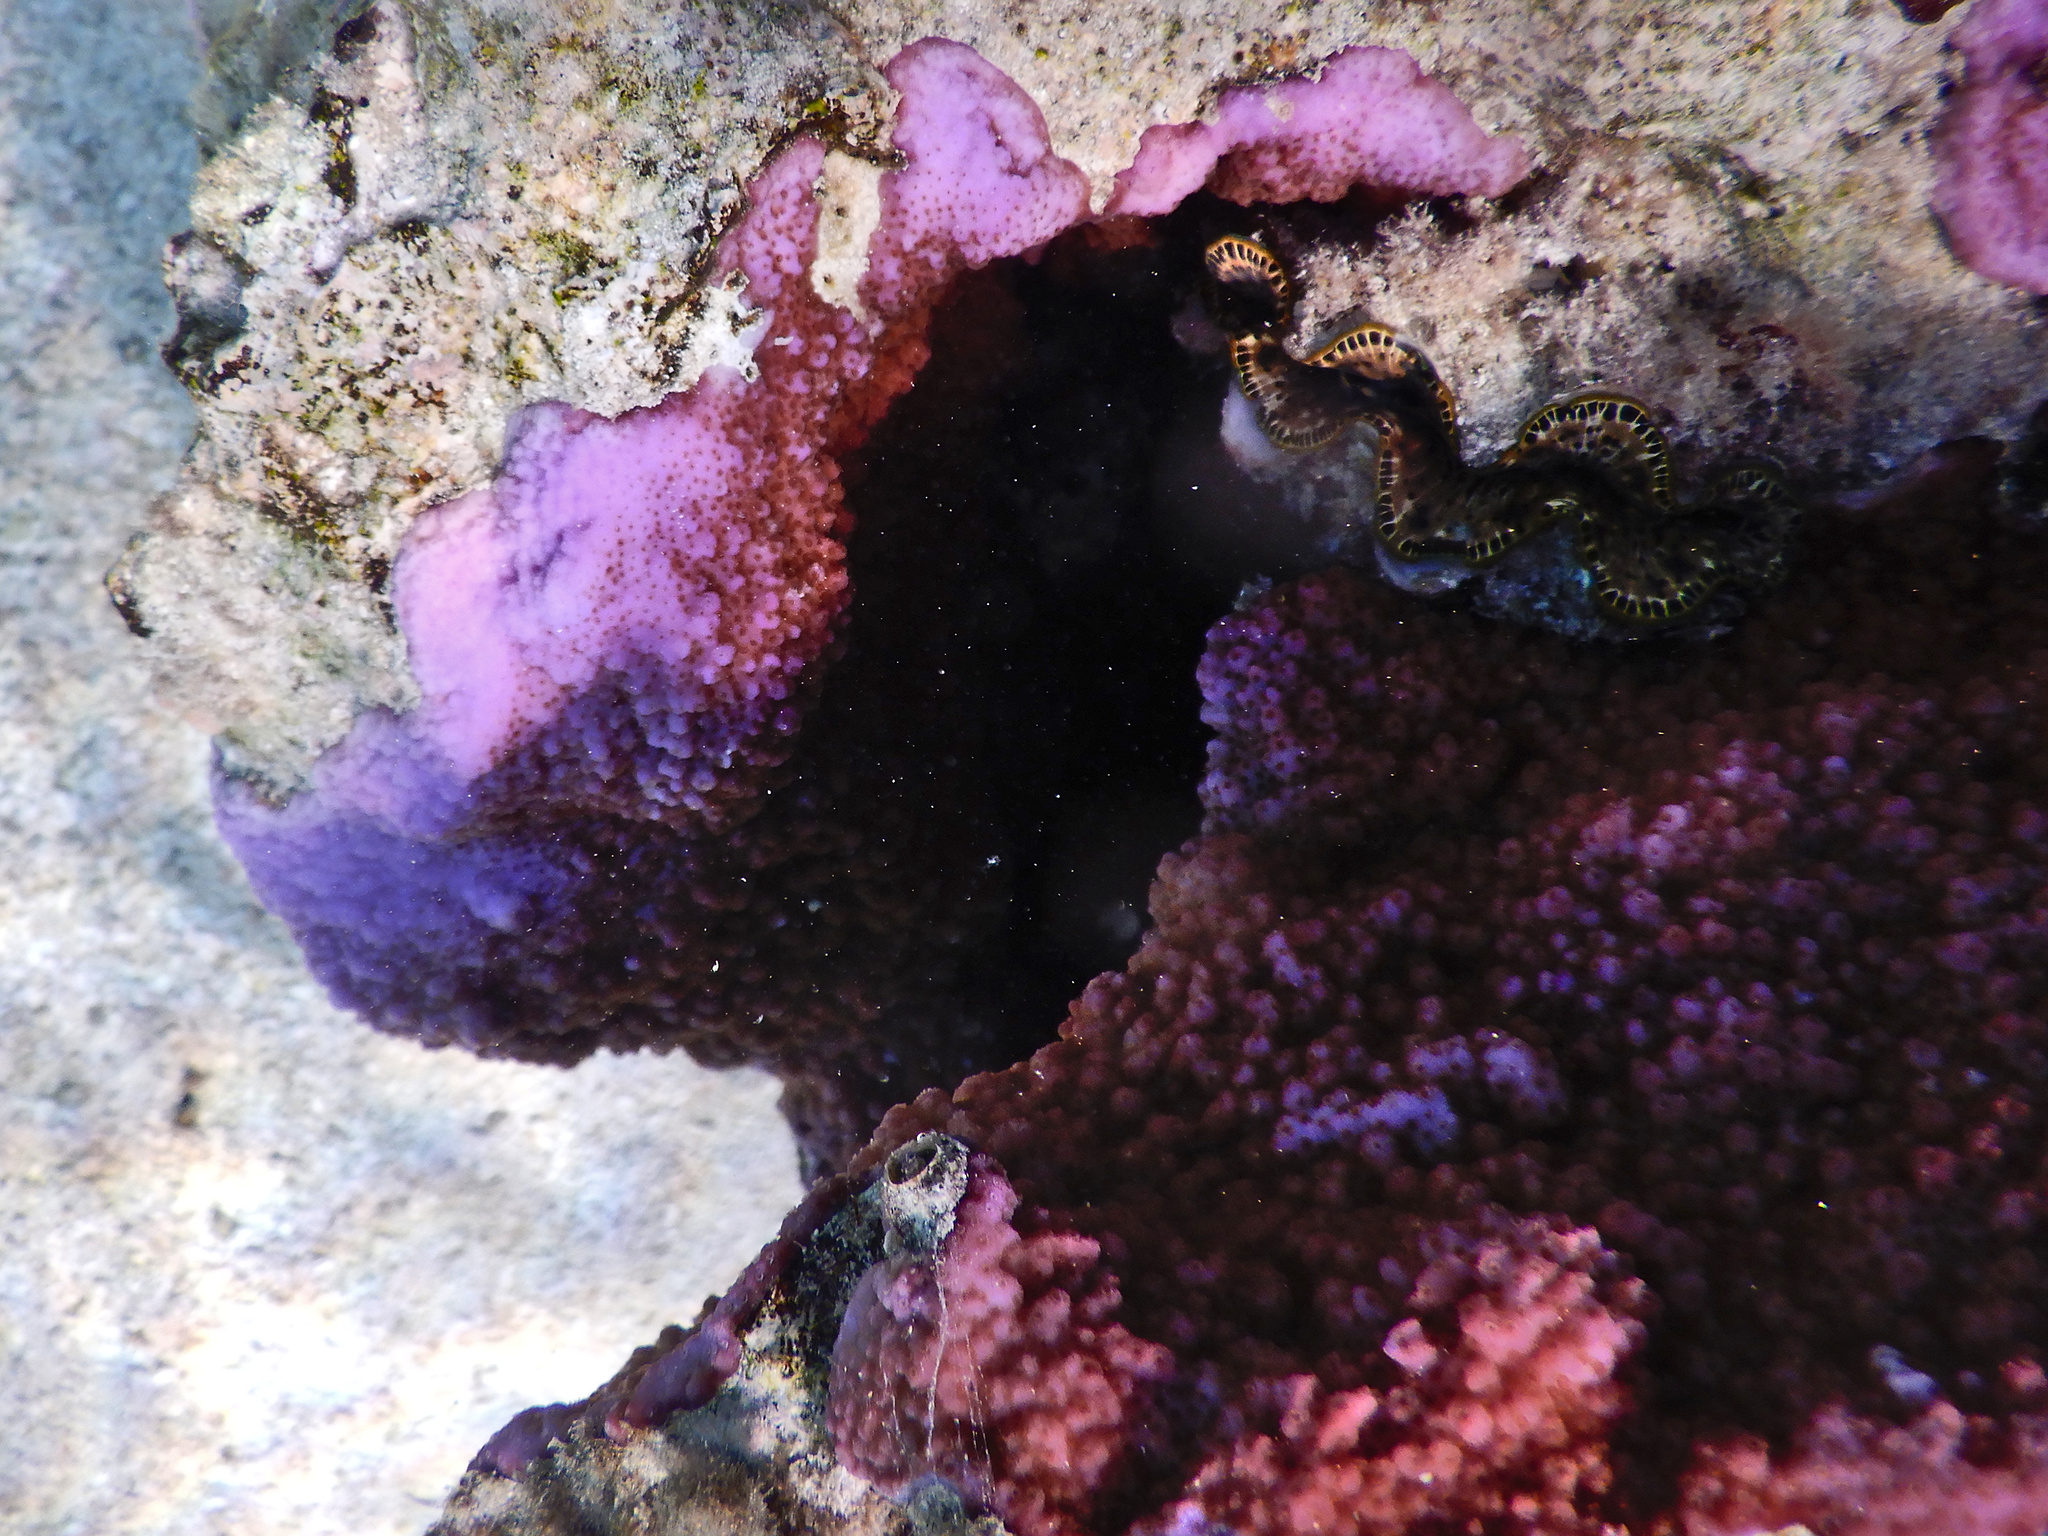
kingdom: Animalia
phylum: Cnidaria
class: Anthozoa
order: Scleractinia
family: Acroporidae
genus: Montipora
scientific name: Montipora flabellata
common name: Pore coral
